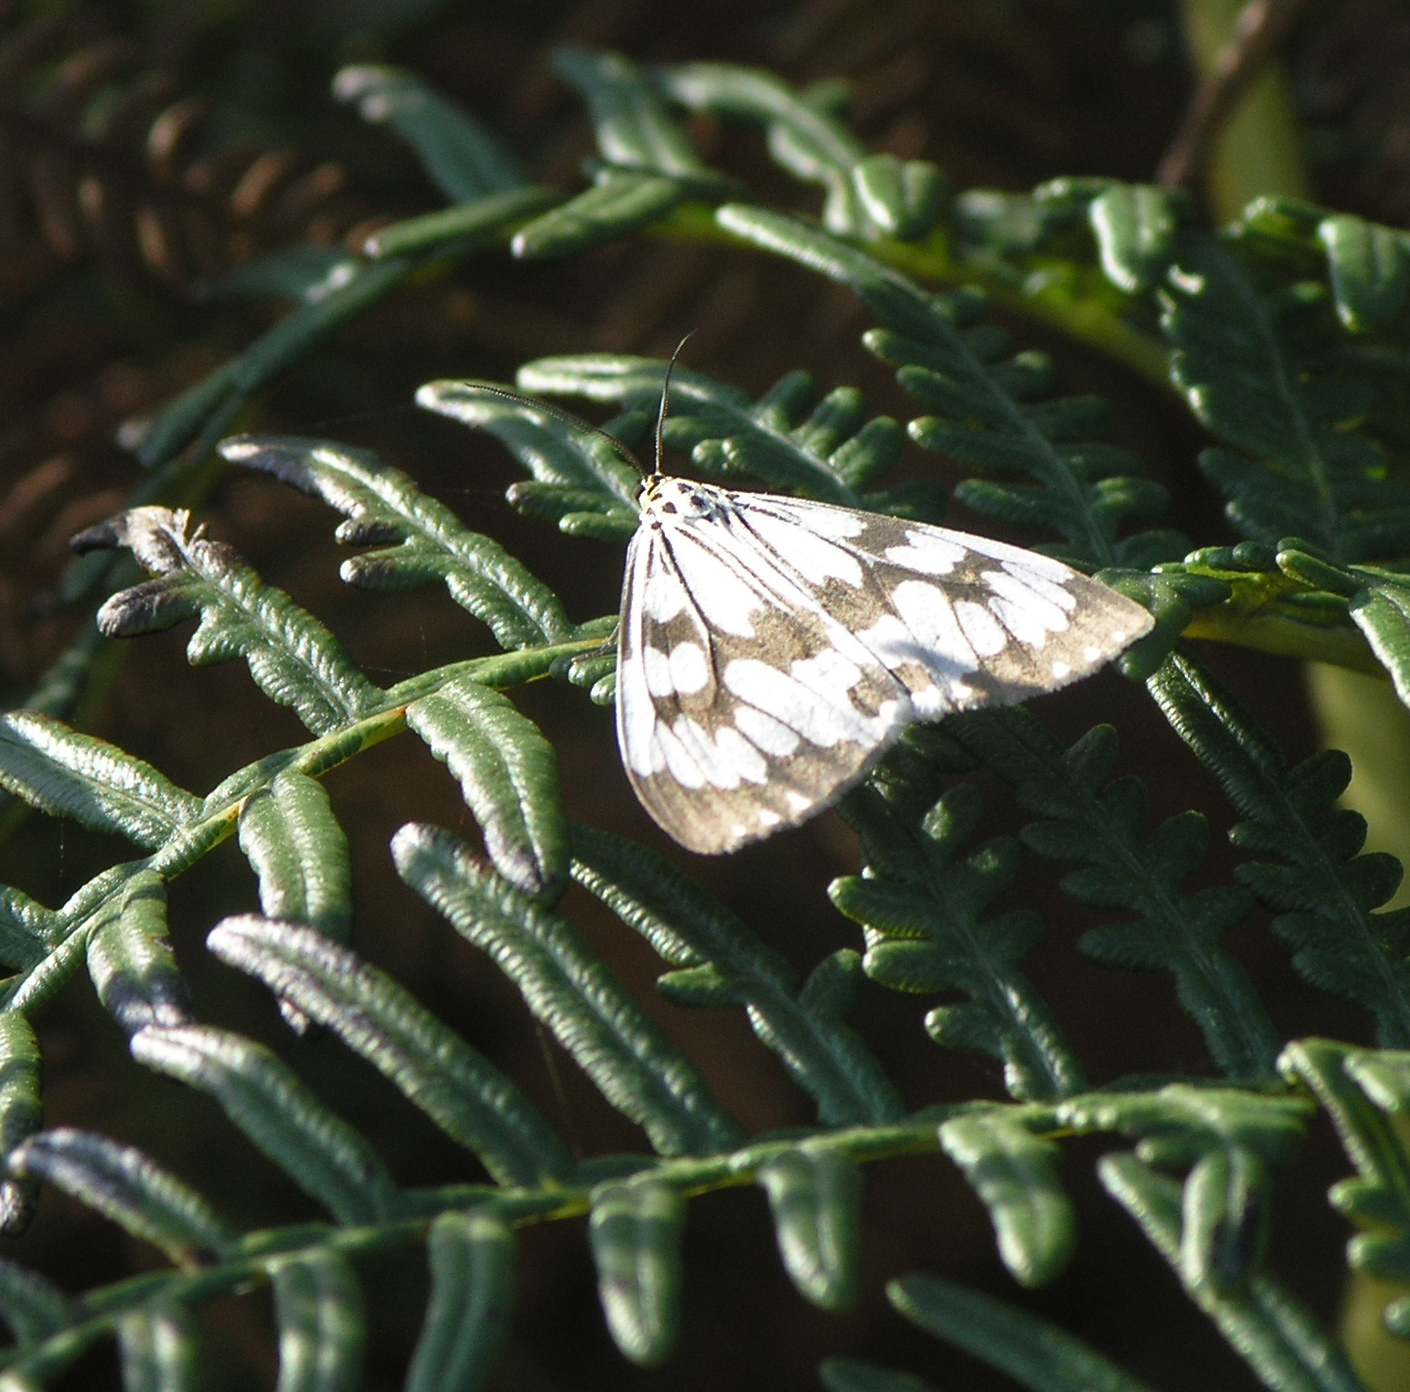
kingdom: Animalia
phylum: Arthropoda
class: Insecta
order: Lepidoptera
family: Erebidae
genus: Nyctemera
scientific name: Nyctemera adversata
